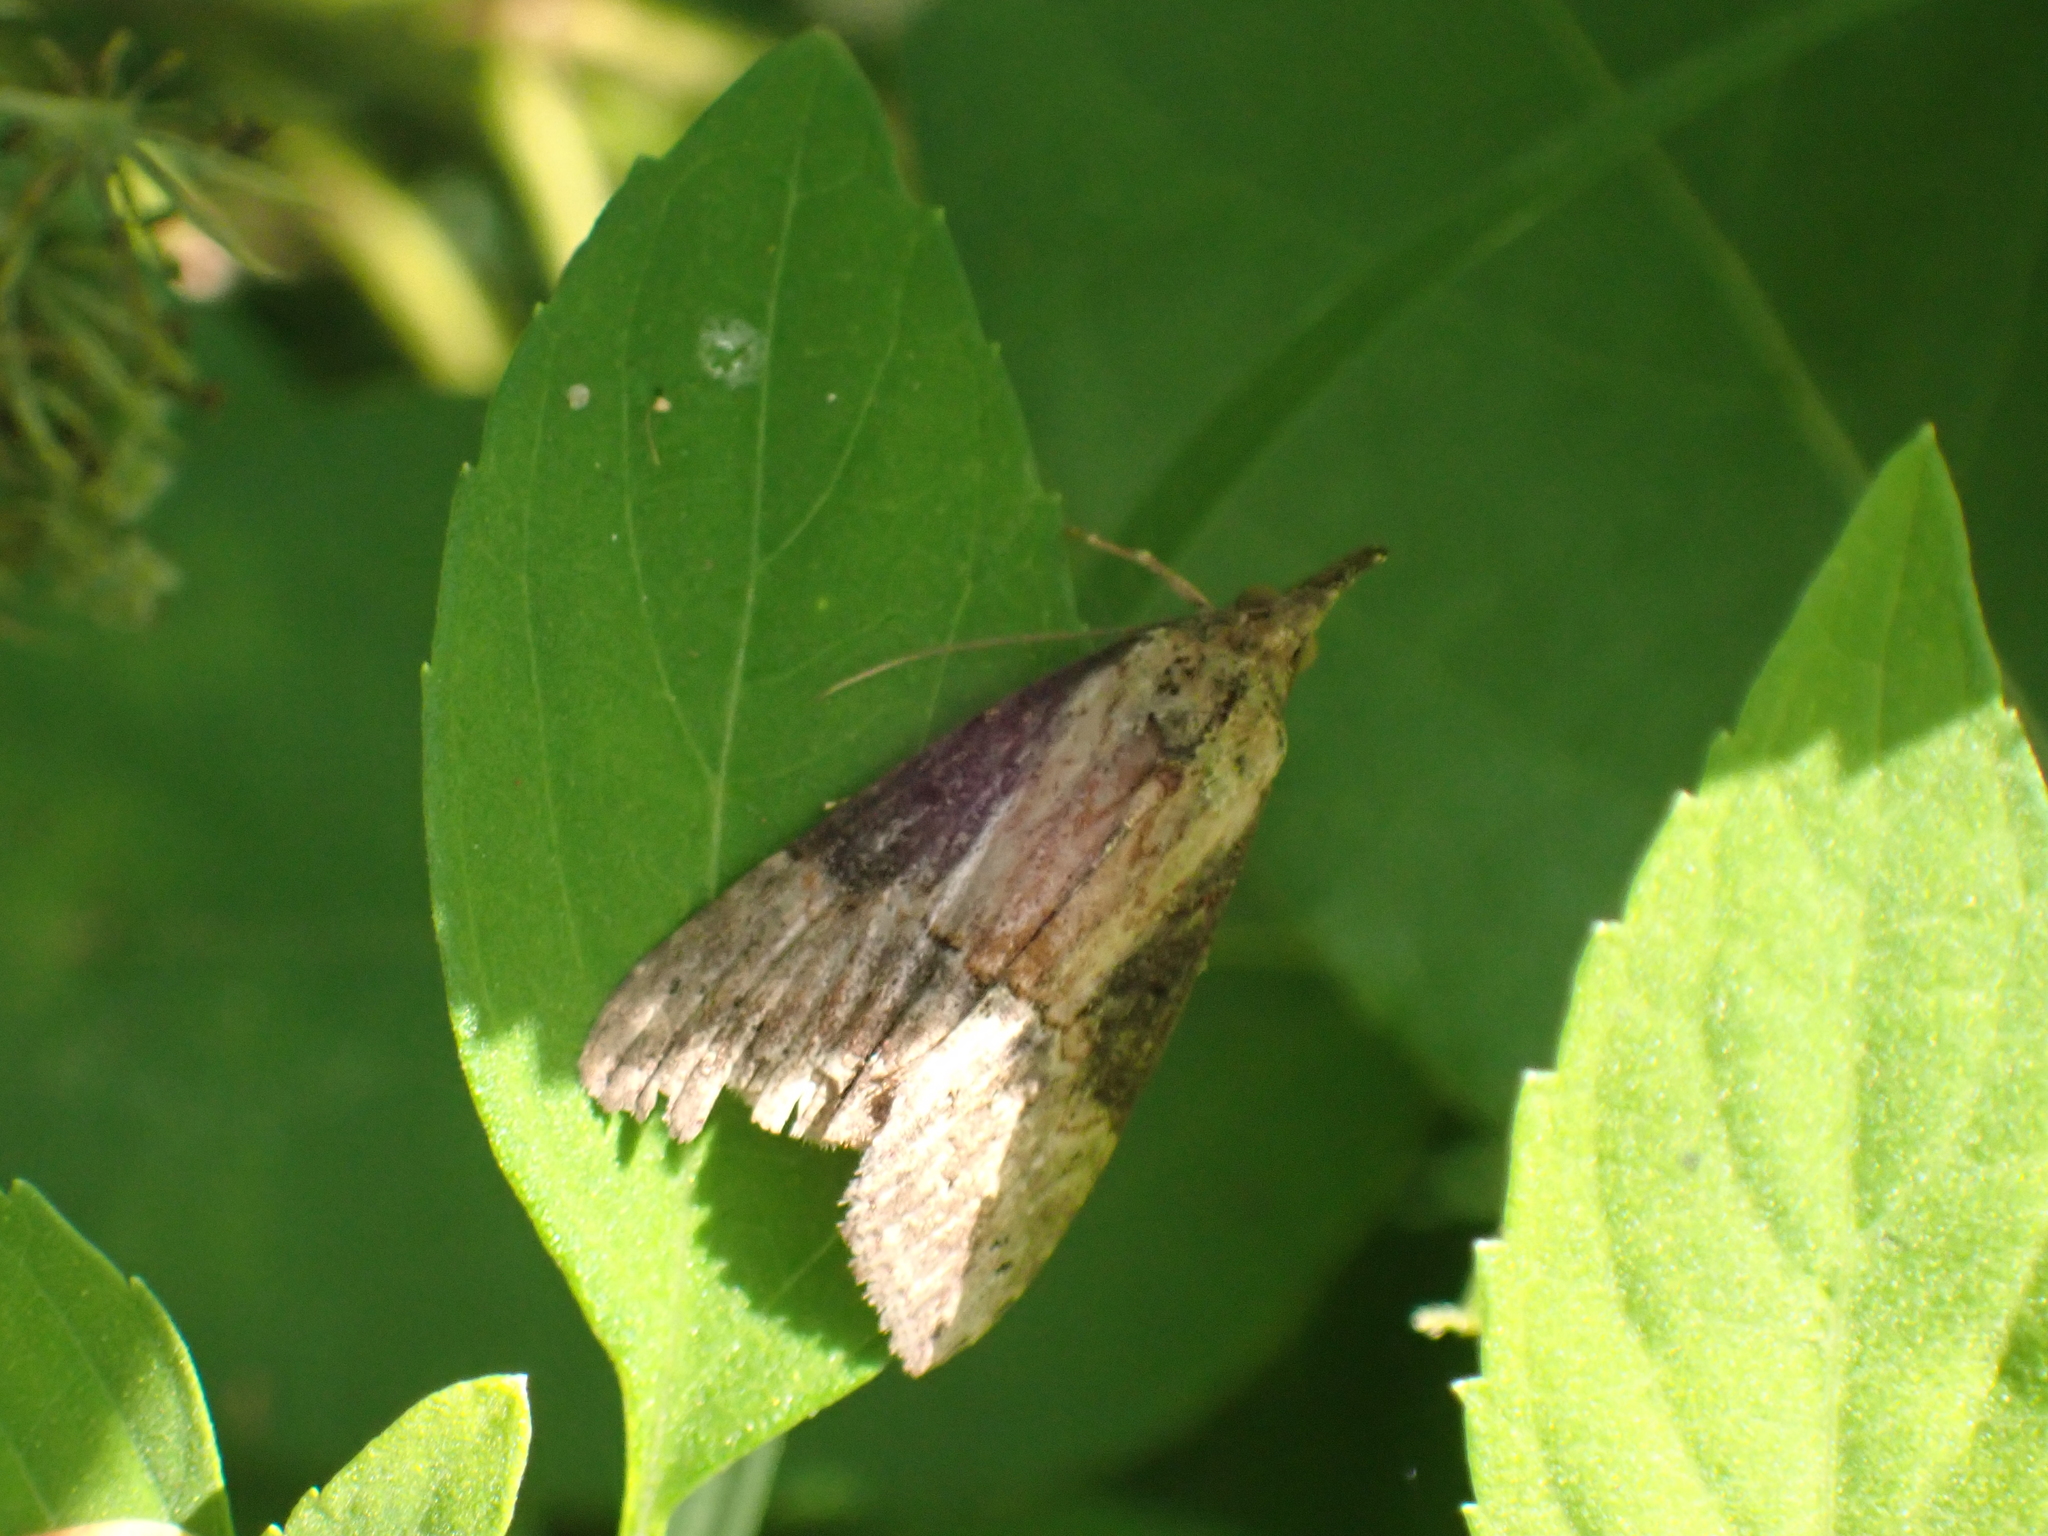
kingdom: Animalia
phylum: Arthropoda
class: Insecta
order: Lepidoptera
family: Erebidae
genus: Hypena
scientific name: Hypena scabra
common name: Green cloverworm
